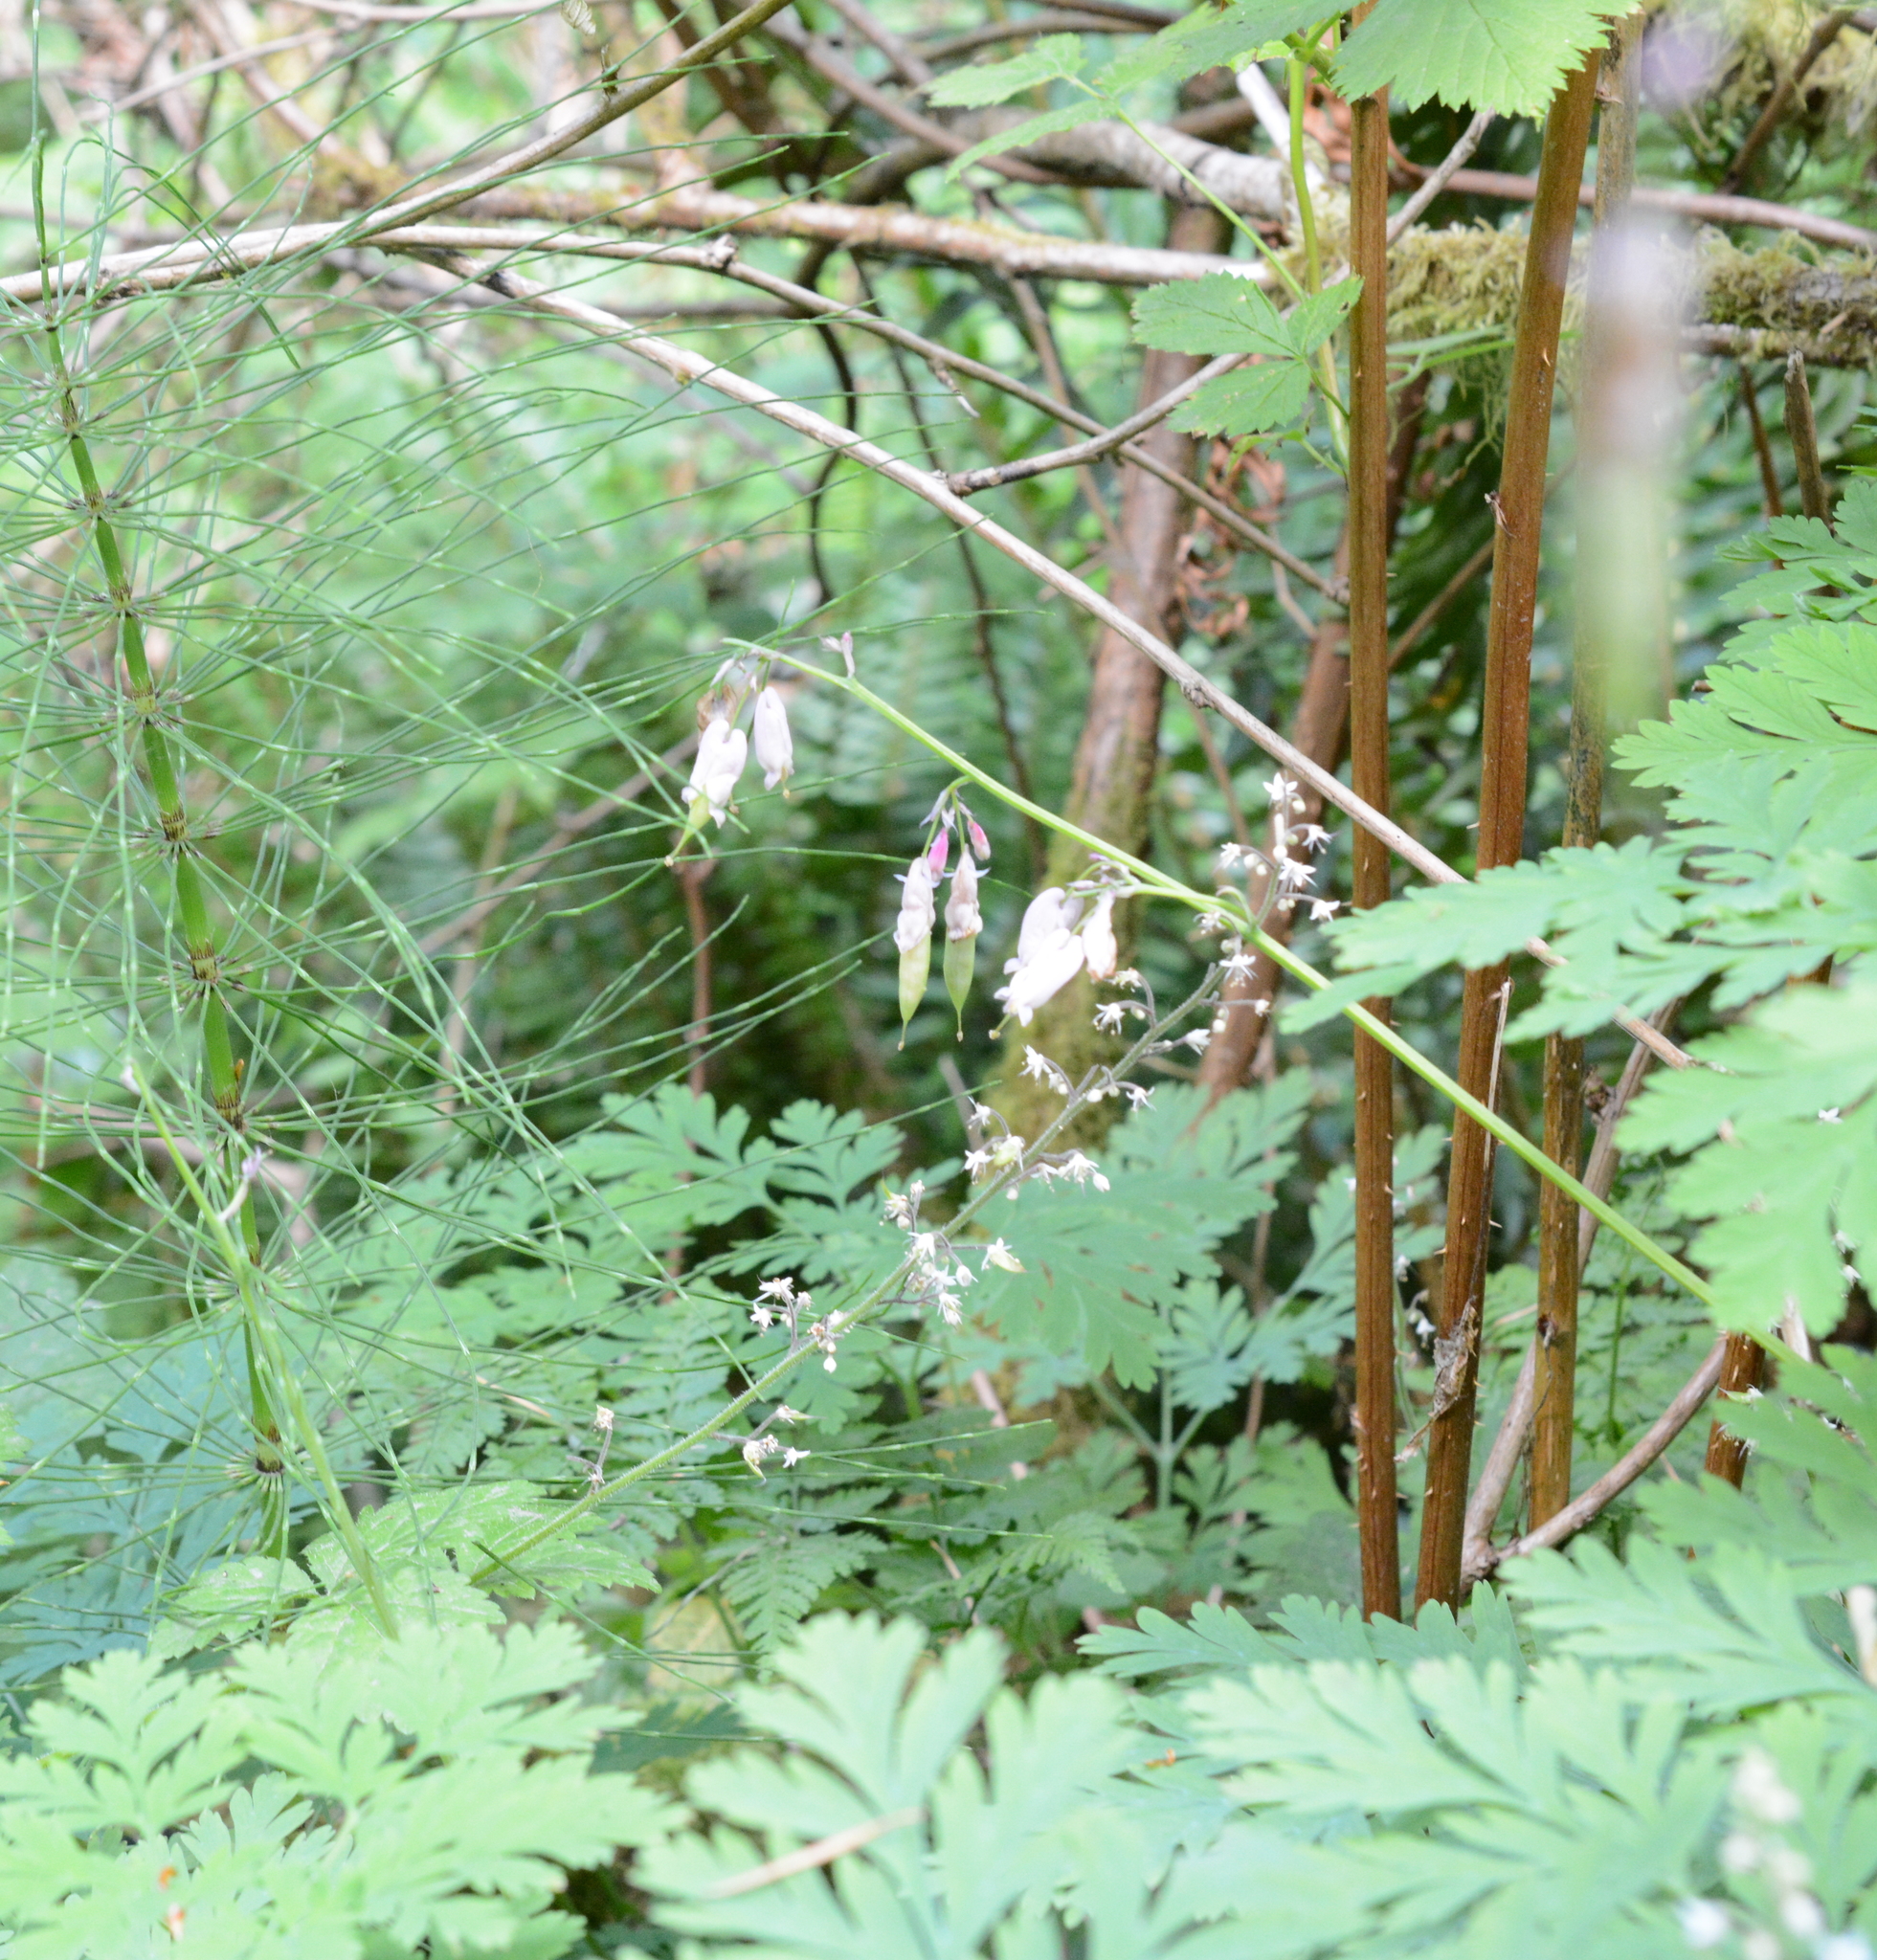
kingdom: Plantae
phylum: Tracheophyta
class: Magnoliopsida
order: Ranunculales
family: Papaveraceae
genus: Dicentra
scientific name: Dicentra formosa
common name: Bleeding-heart
